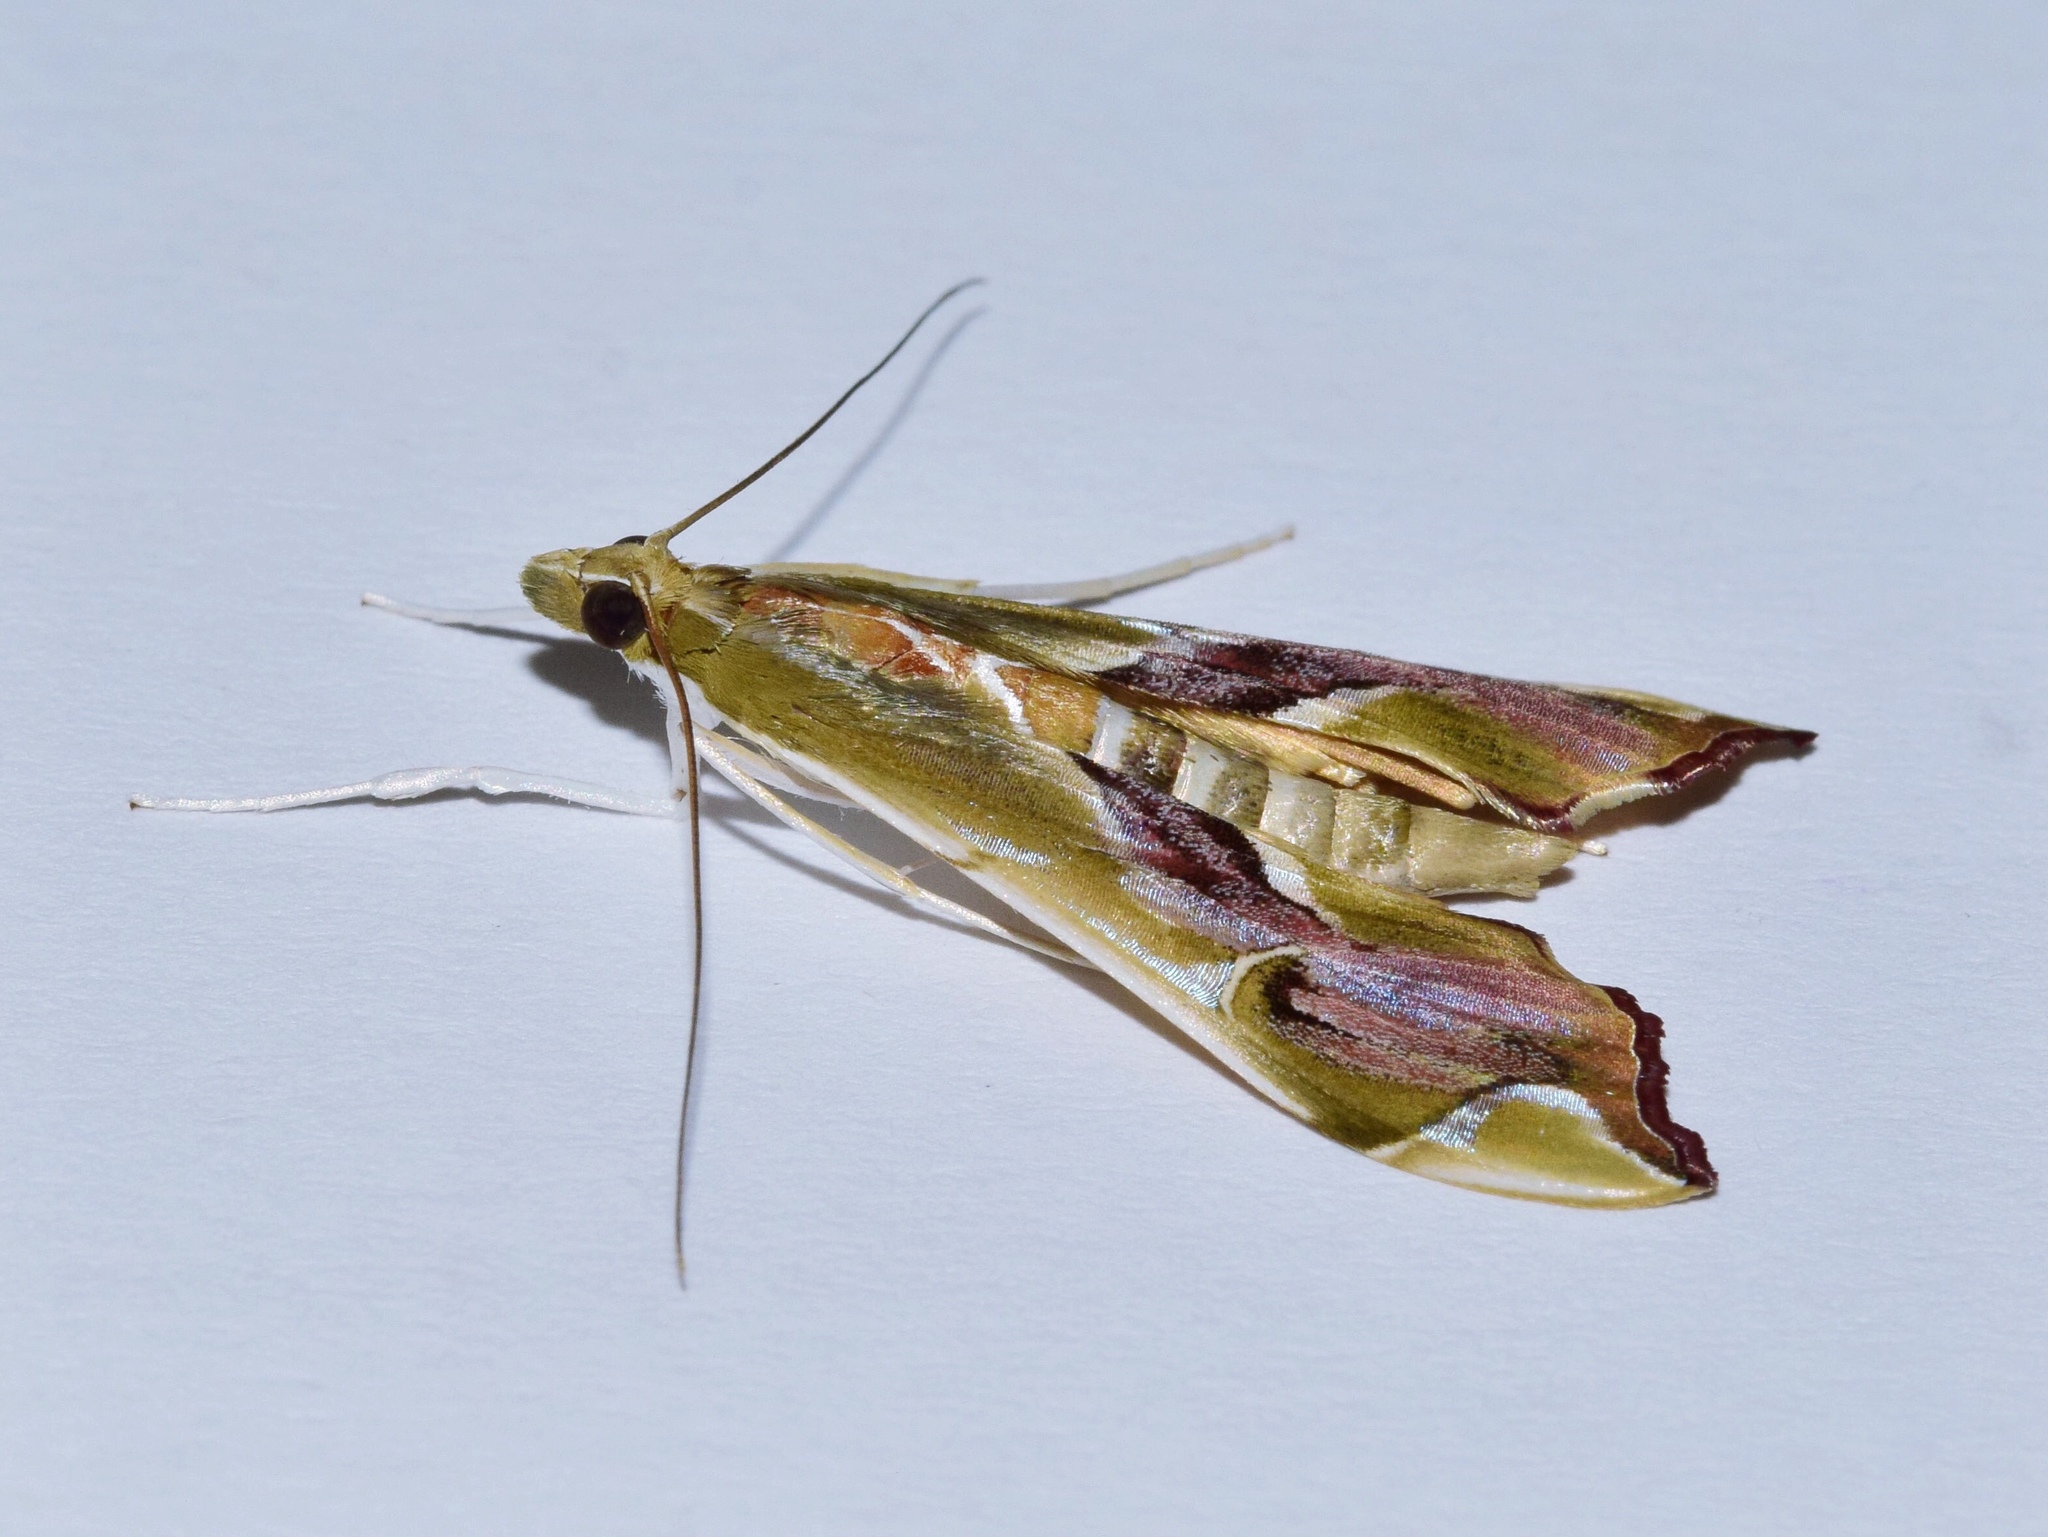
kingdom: Animalia
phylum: Arthropoda
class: Insecta
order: Lepidoptera
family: Crambidae
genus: Agathodes
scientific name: Agathodes musivalis
